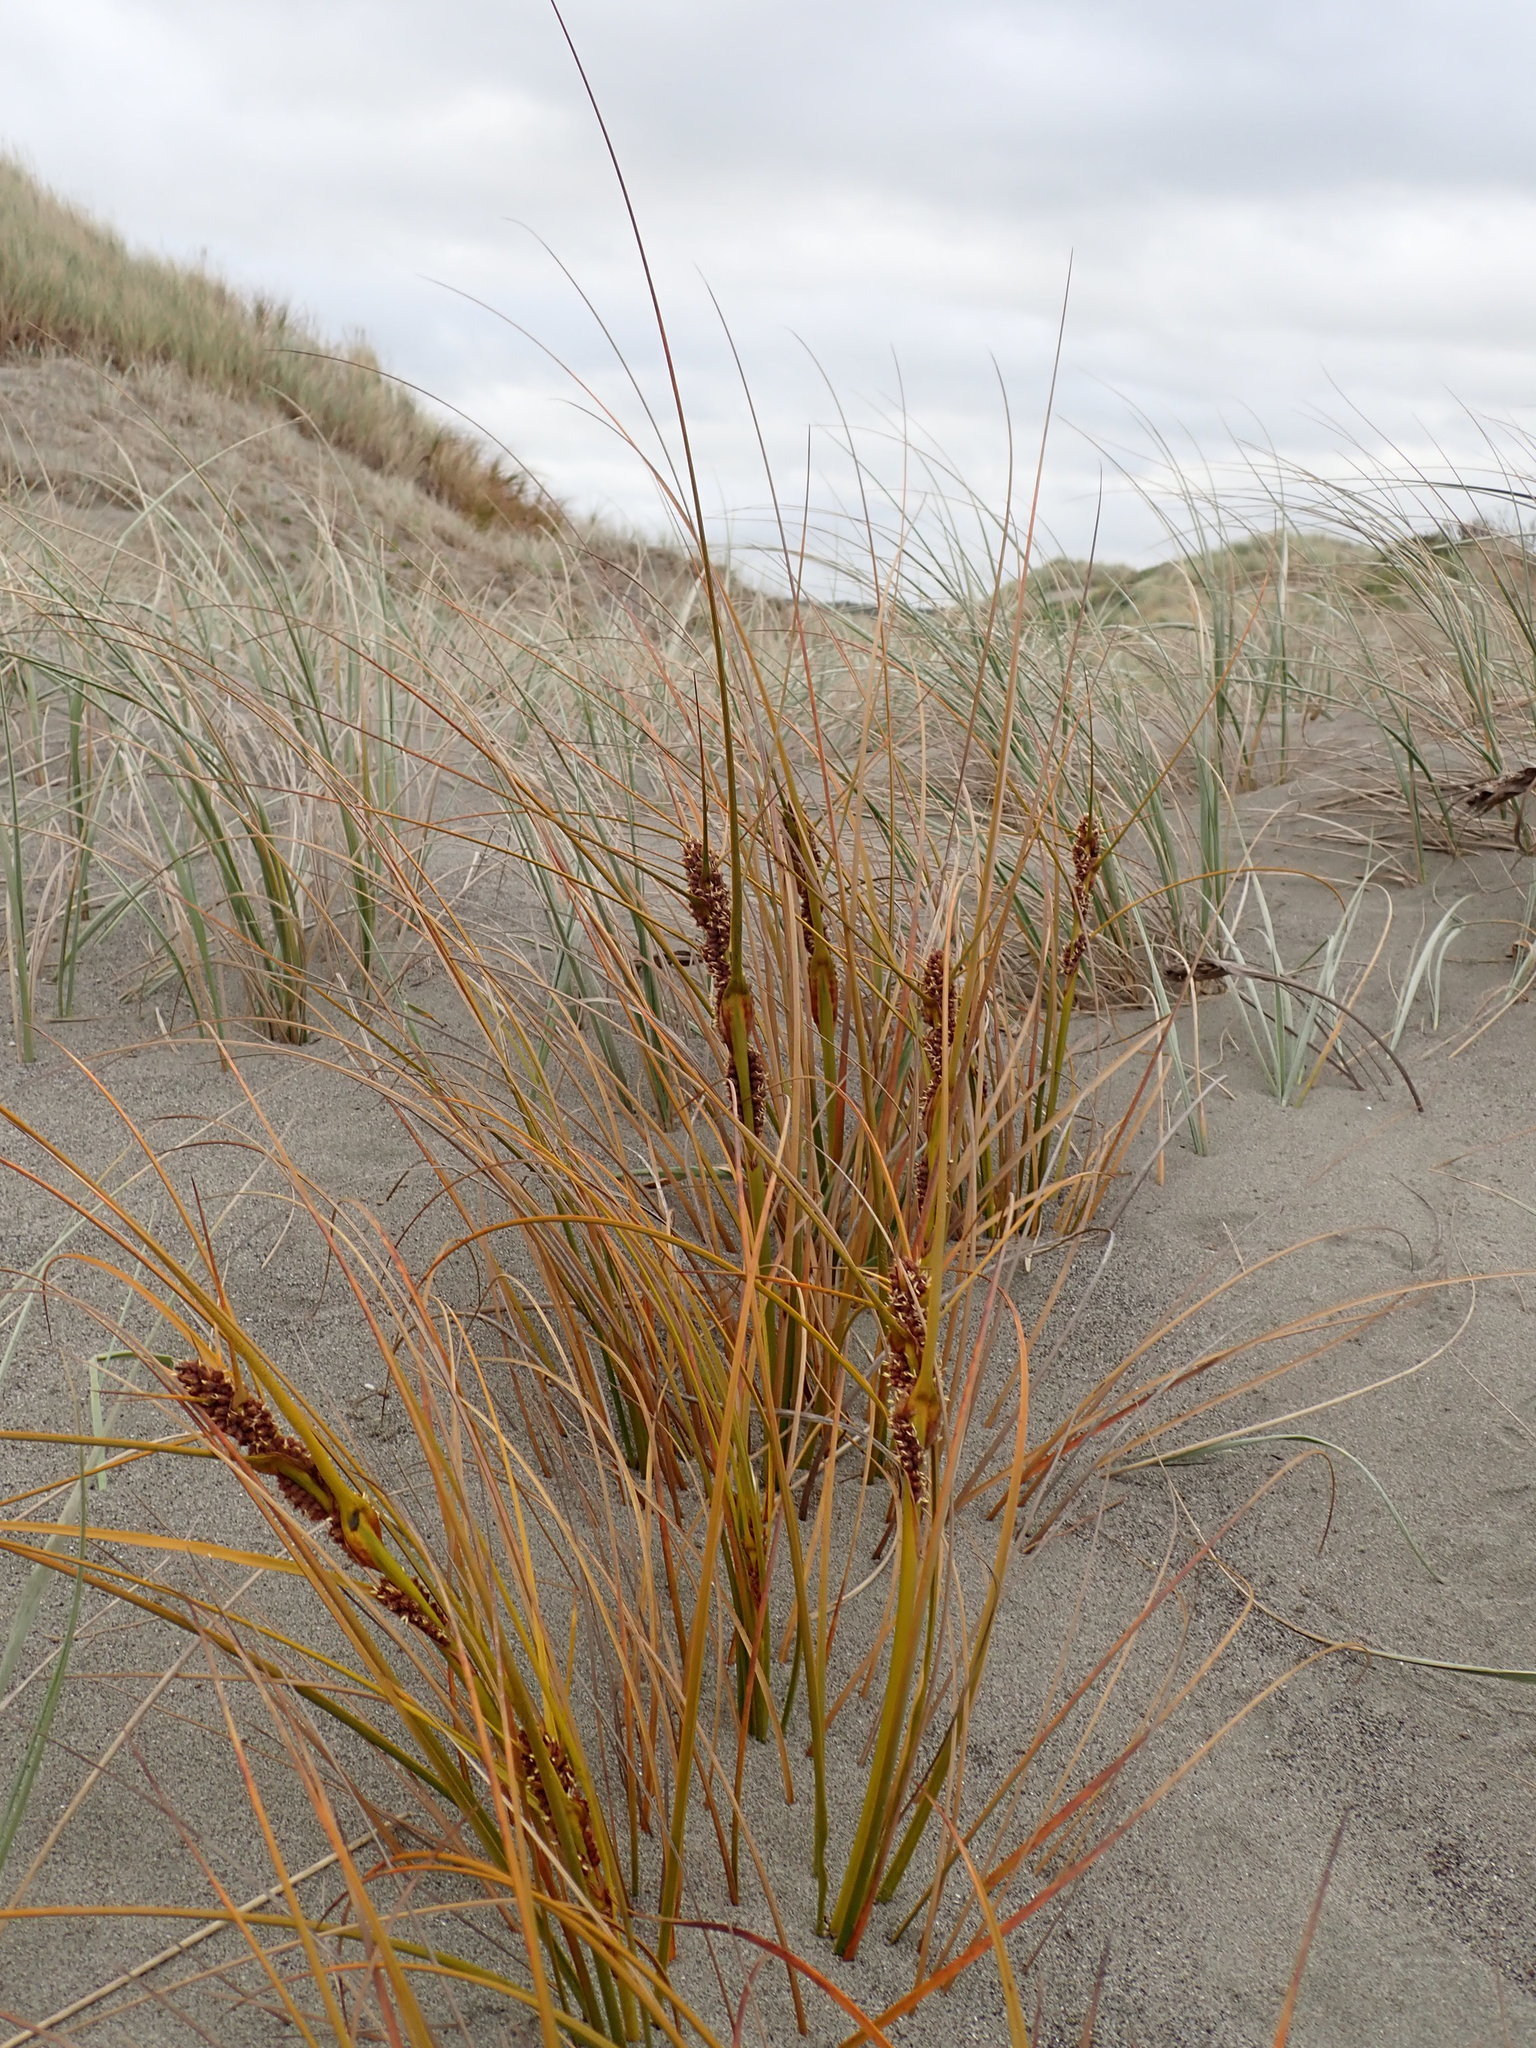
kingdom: Plantae
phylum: Tracheophyta
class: Liliopsida
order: Poales
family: Cyperaceae
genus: Ficinia
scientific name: Ficinia spiralis
